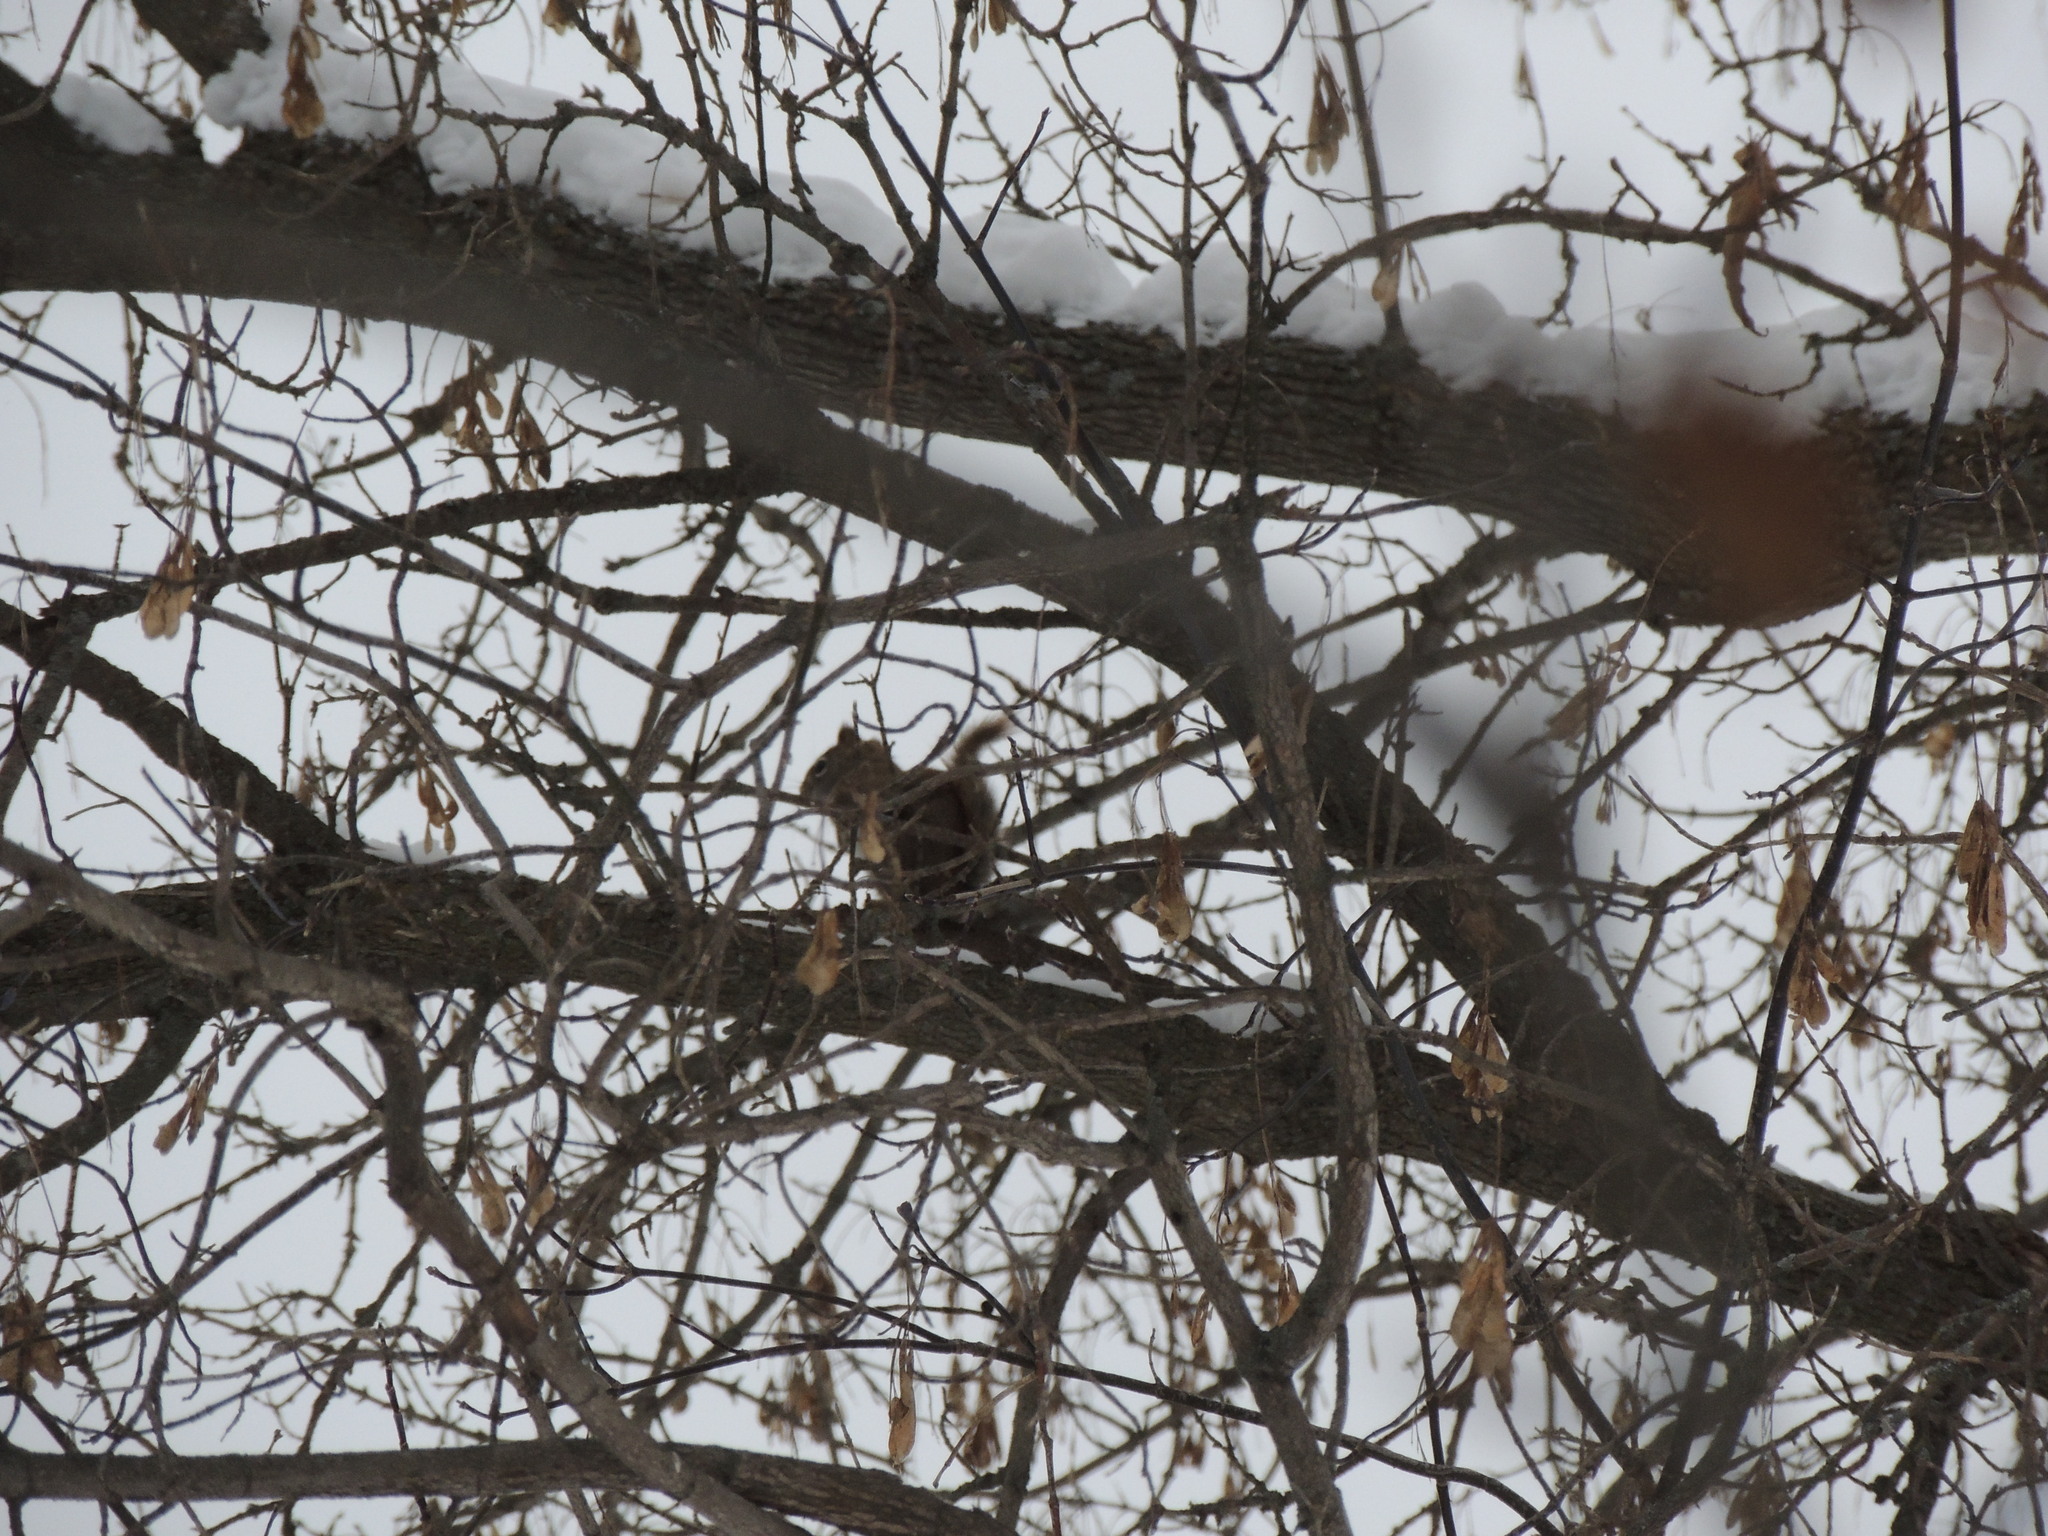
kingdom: Animalia
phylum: Chordata
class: Mammalia
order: Rodentia
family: Sciuridae
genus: Tamiasciurus
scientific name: Tamiasciurus hudsonicus
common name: Red squirrel
